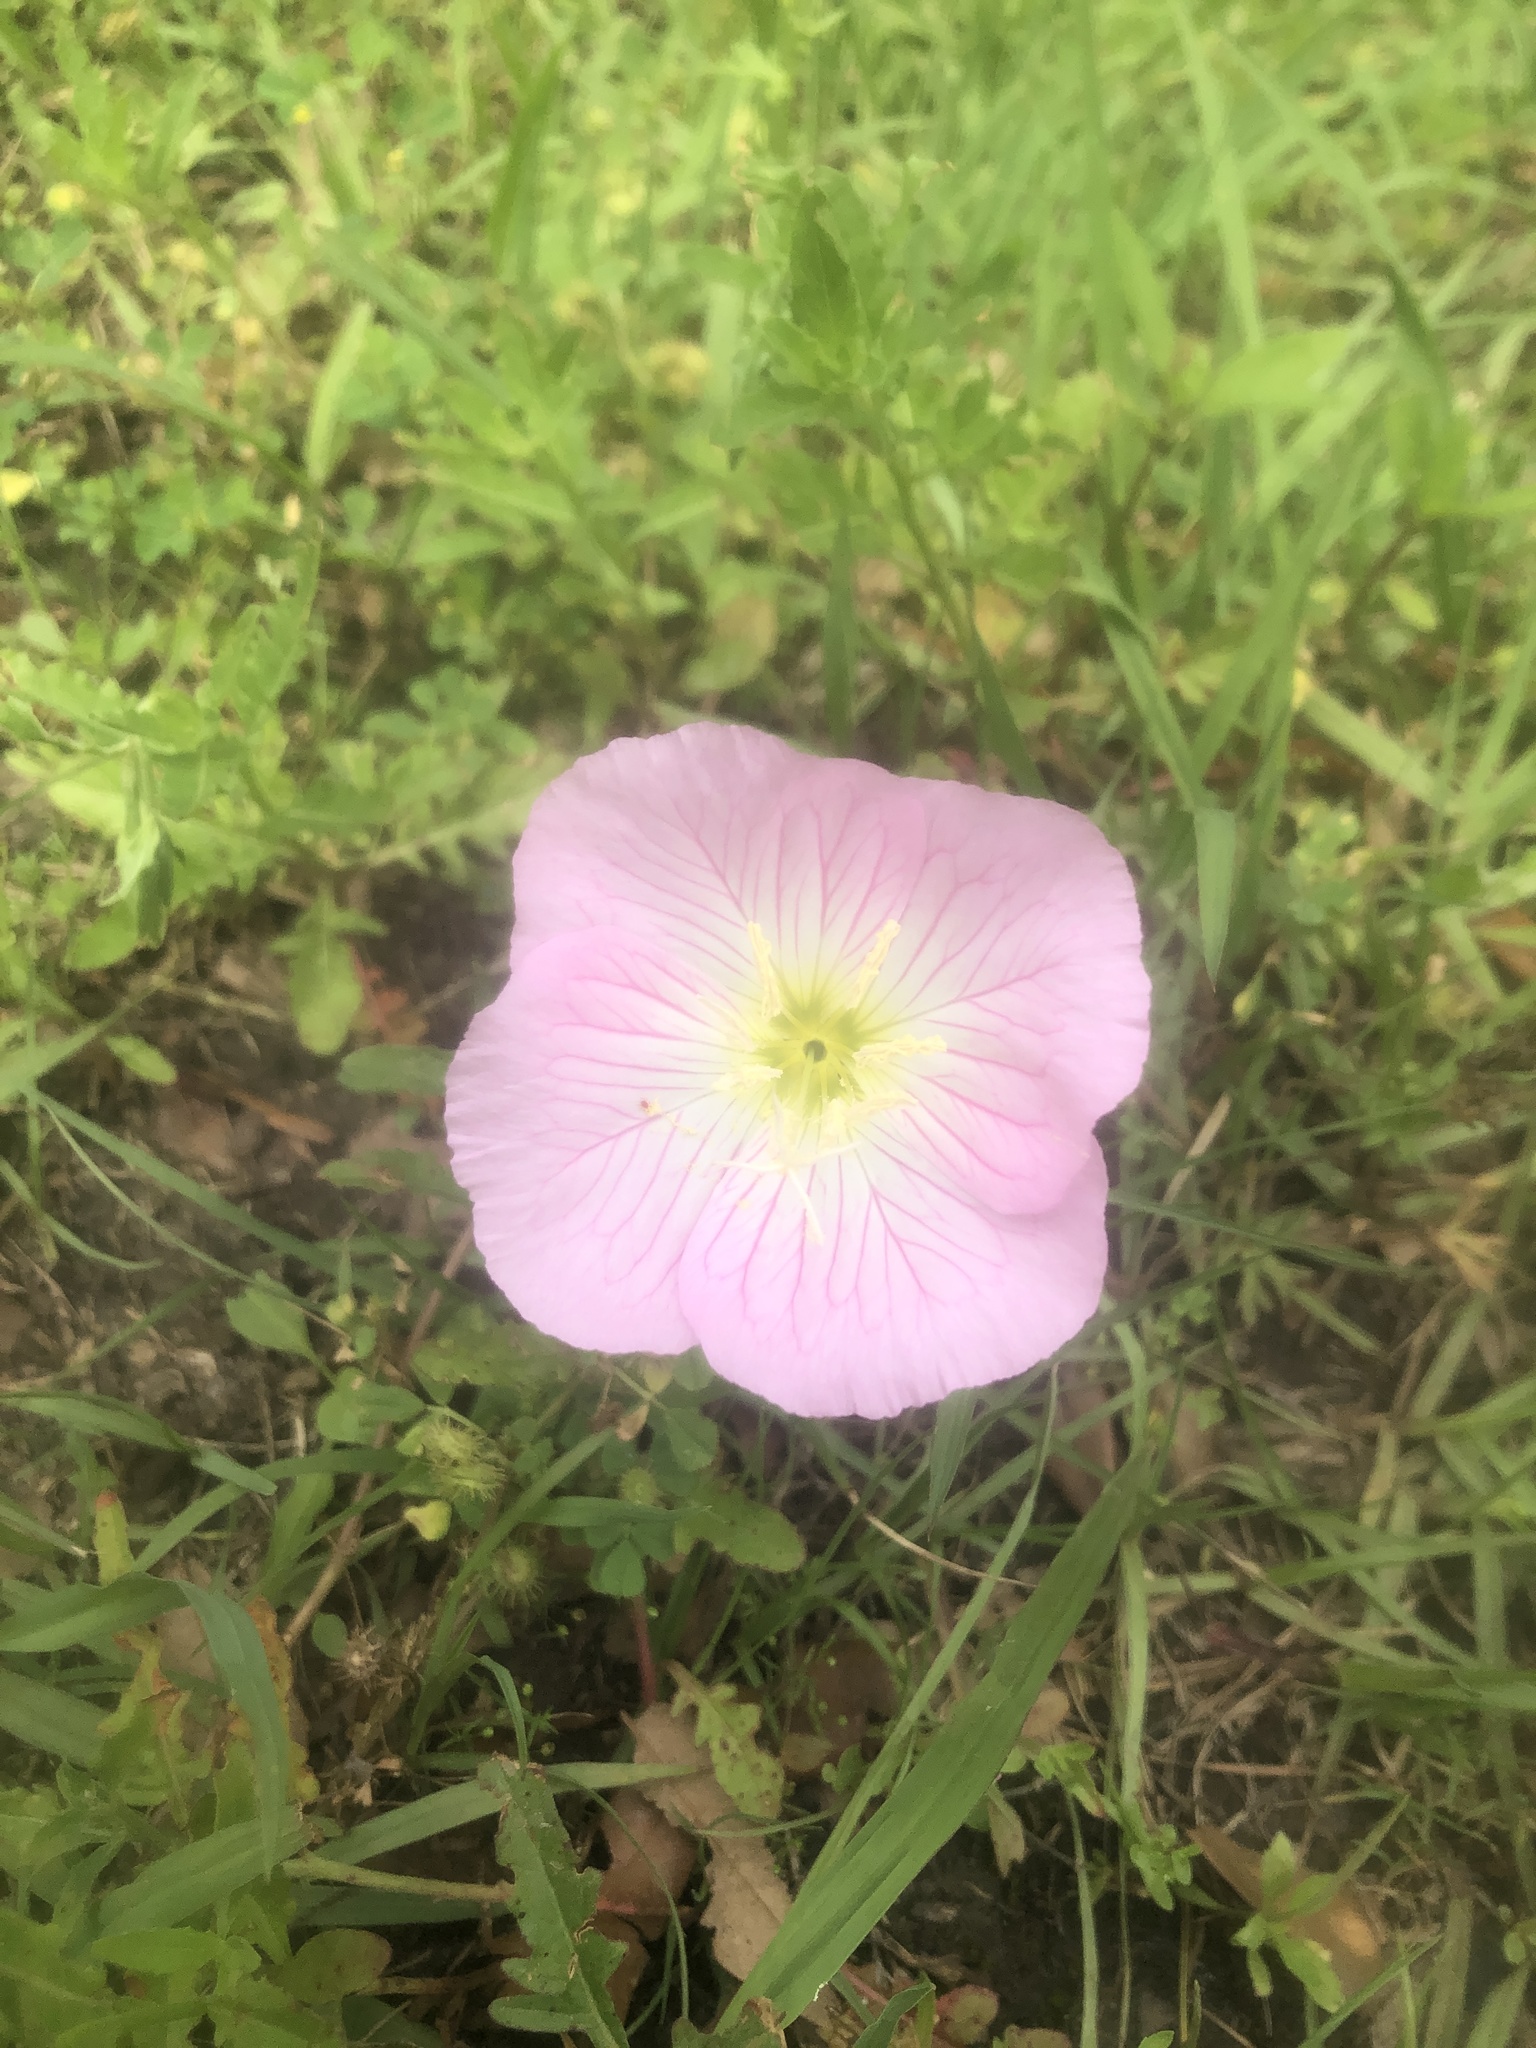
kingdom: Plantae
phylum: Tracheophyta
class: Magnoliopsida
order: Myrtales
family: Onagraceae
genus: Oenothera
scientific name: Oenothera speciosa
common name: White evening-primrose
